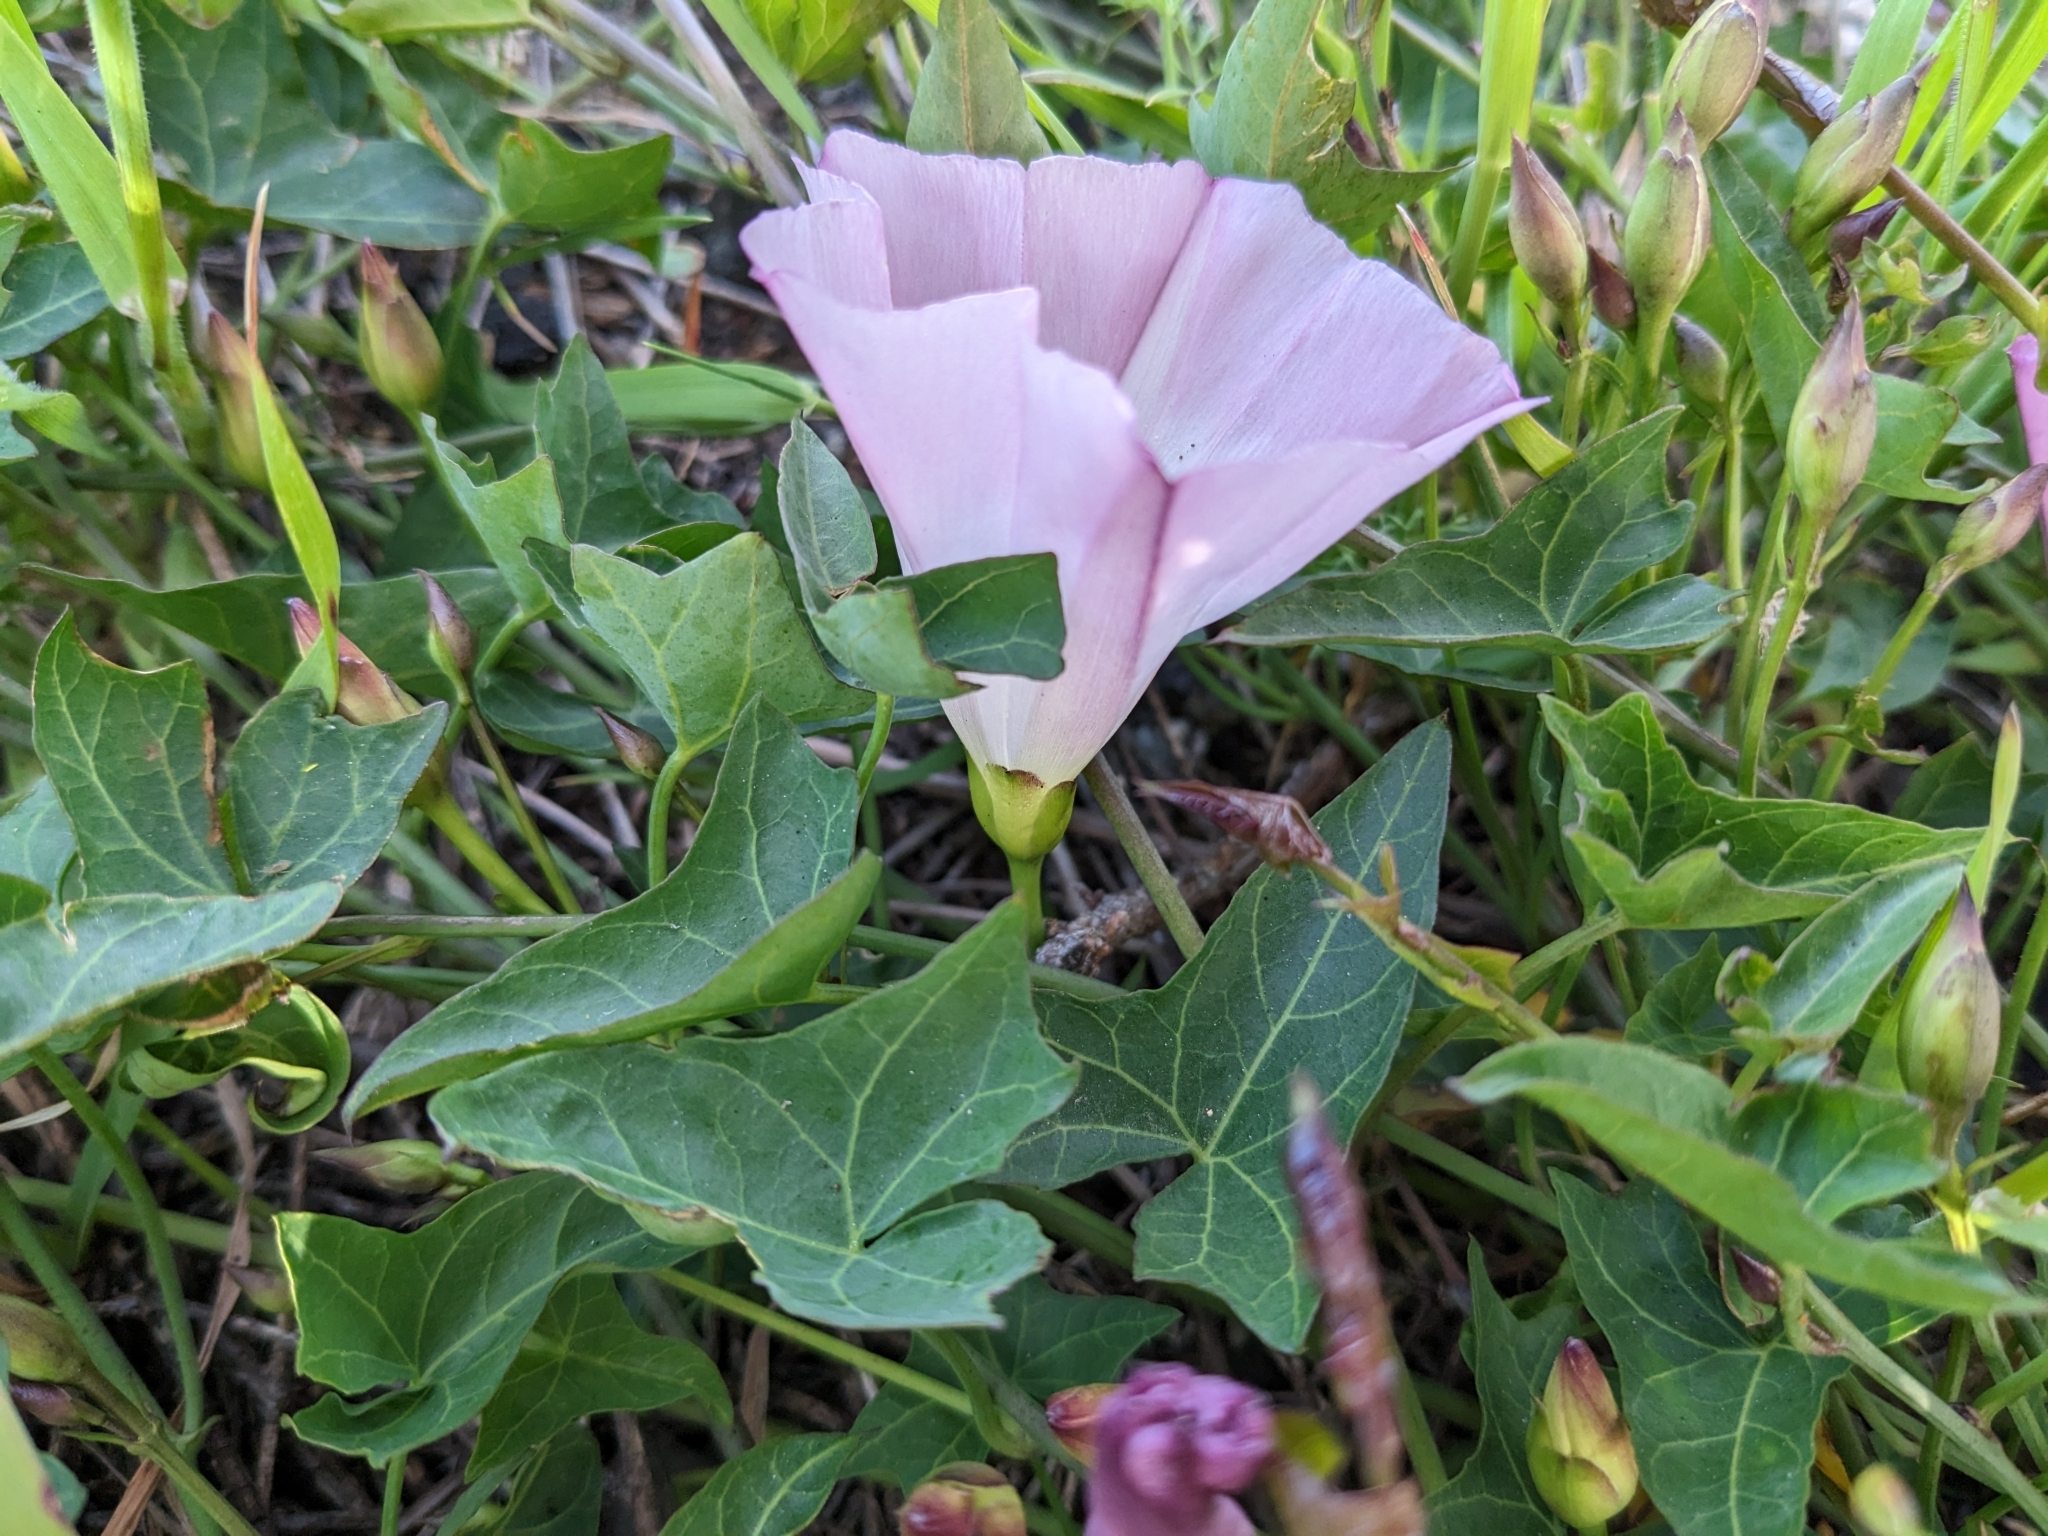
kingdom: Plantae
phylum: Tracheophyta
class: Magnoliopsida
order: Solanales
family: Convolvulaceae
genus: Calystegia
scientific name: Calystegia purpurata
